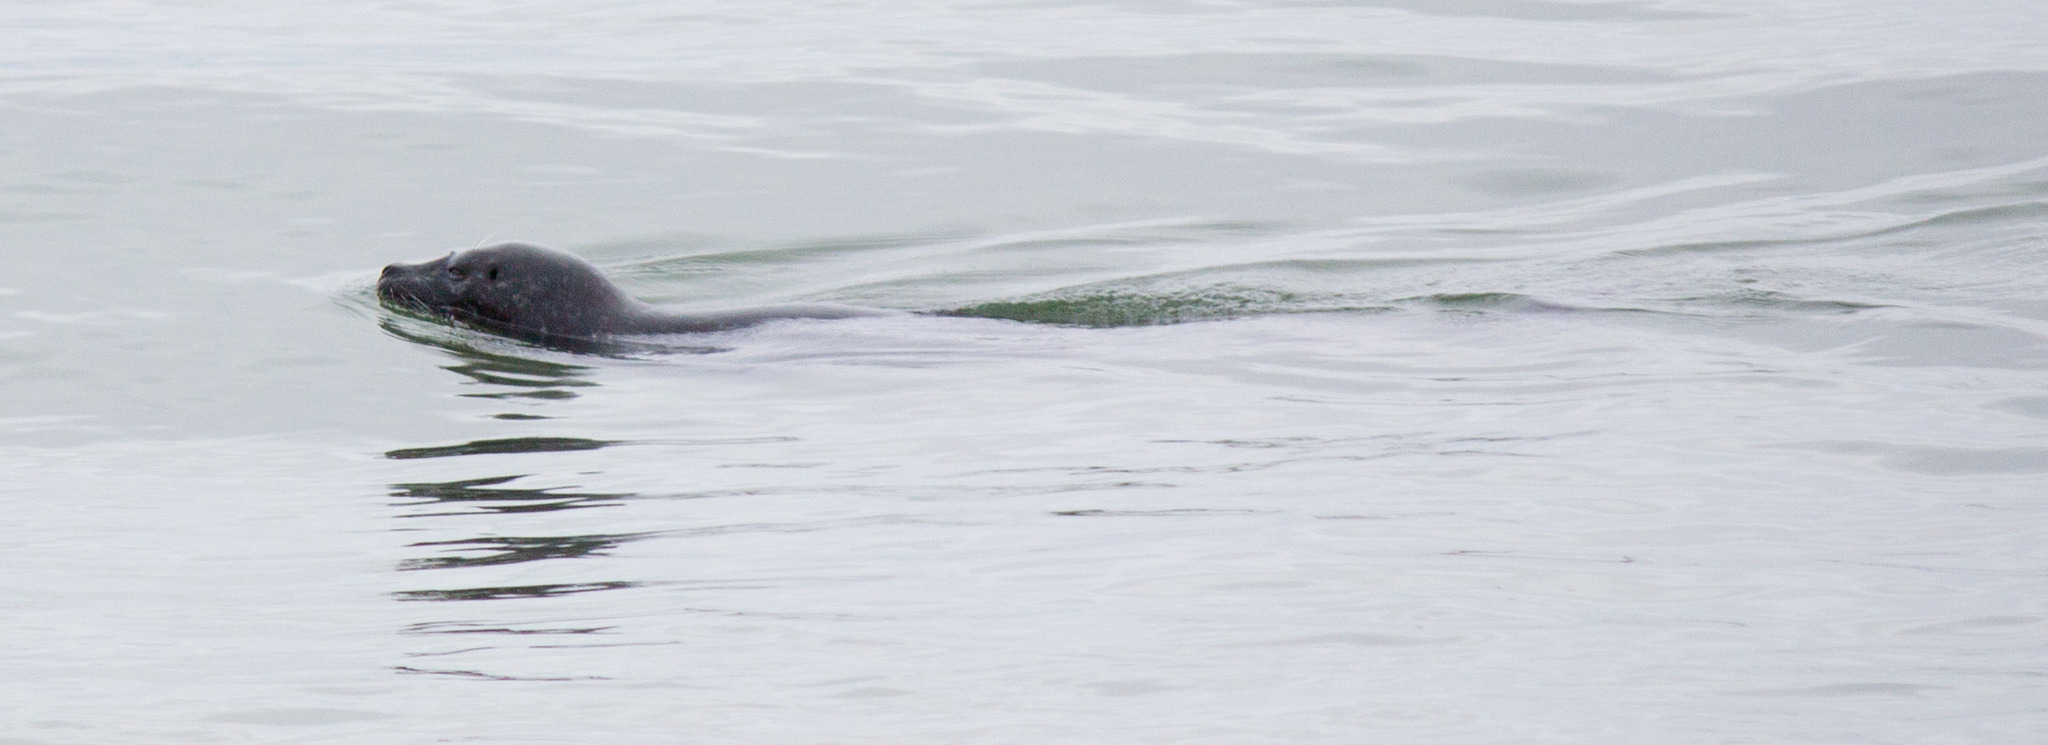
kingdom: Animalia
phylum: Chordata
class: Mammalia
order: Carnivora
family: Phocidae
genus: Phoca
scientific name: Phoca vitulina
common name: Harbor seal
